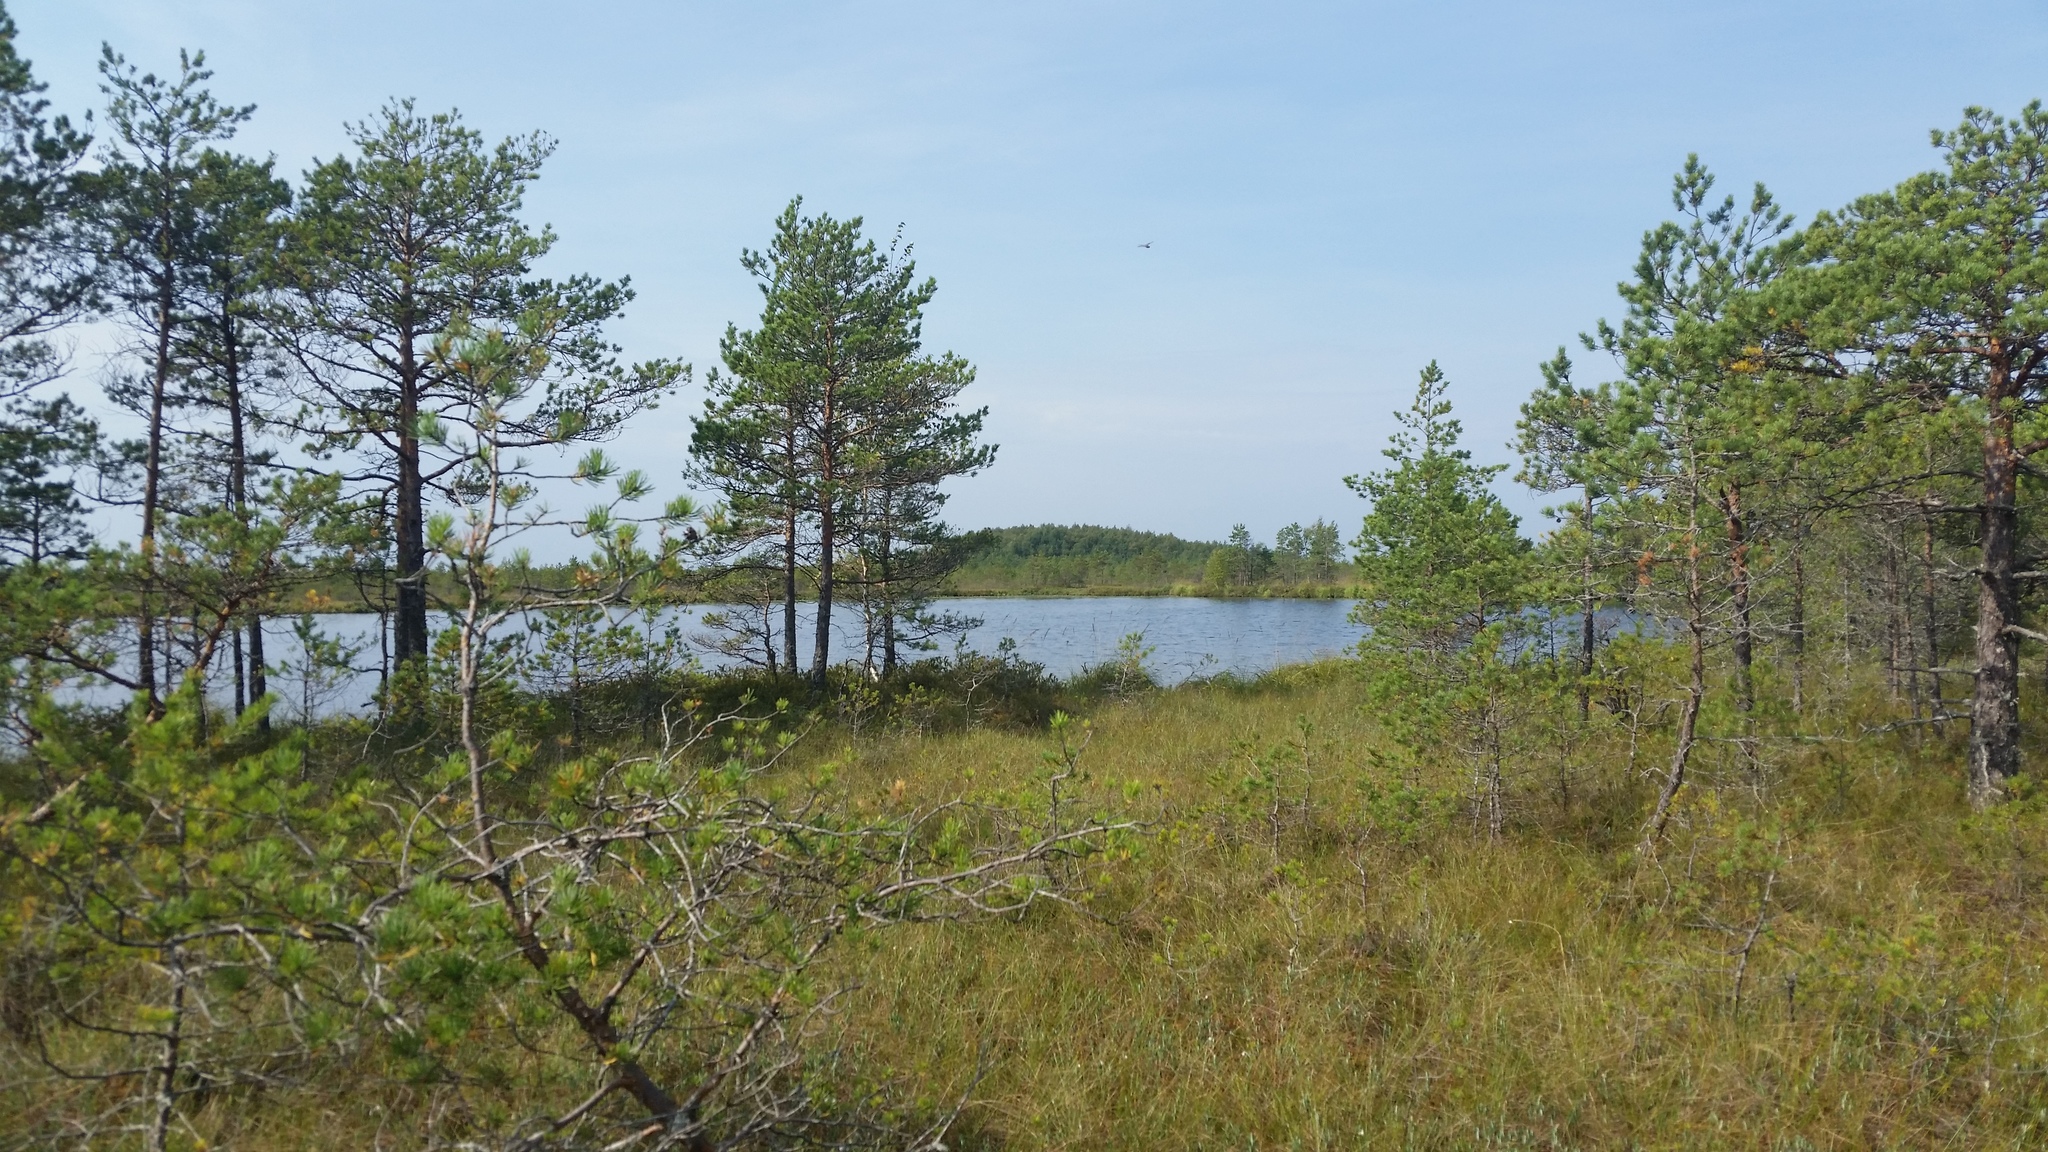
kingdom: Plantae
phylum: Tracheophyta
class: Pinopsida
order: Pinales
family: Pinaceae
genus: Pinus
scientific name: Pinus sylvestris
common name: Scots pine
